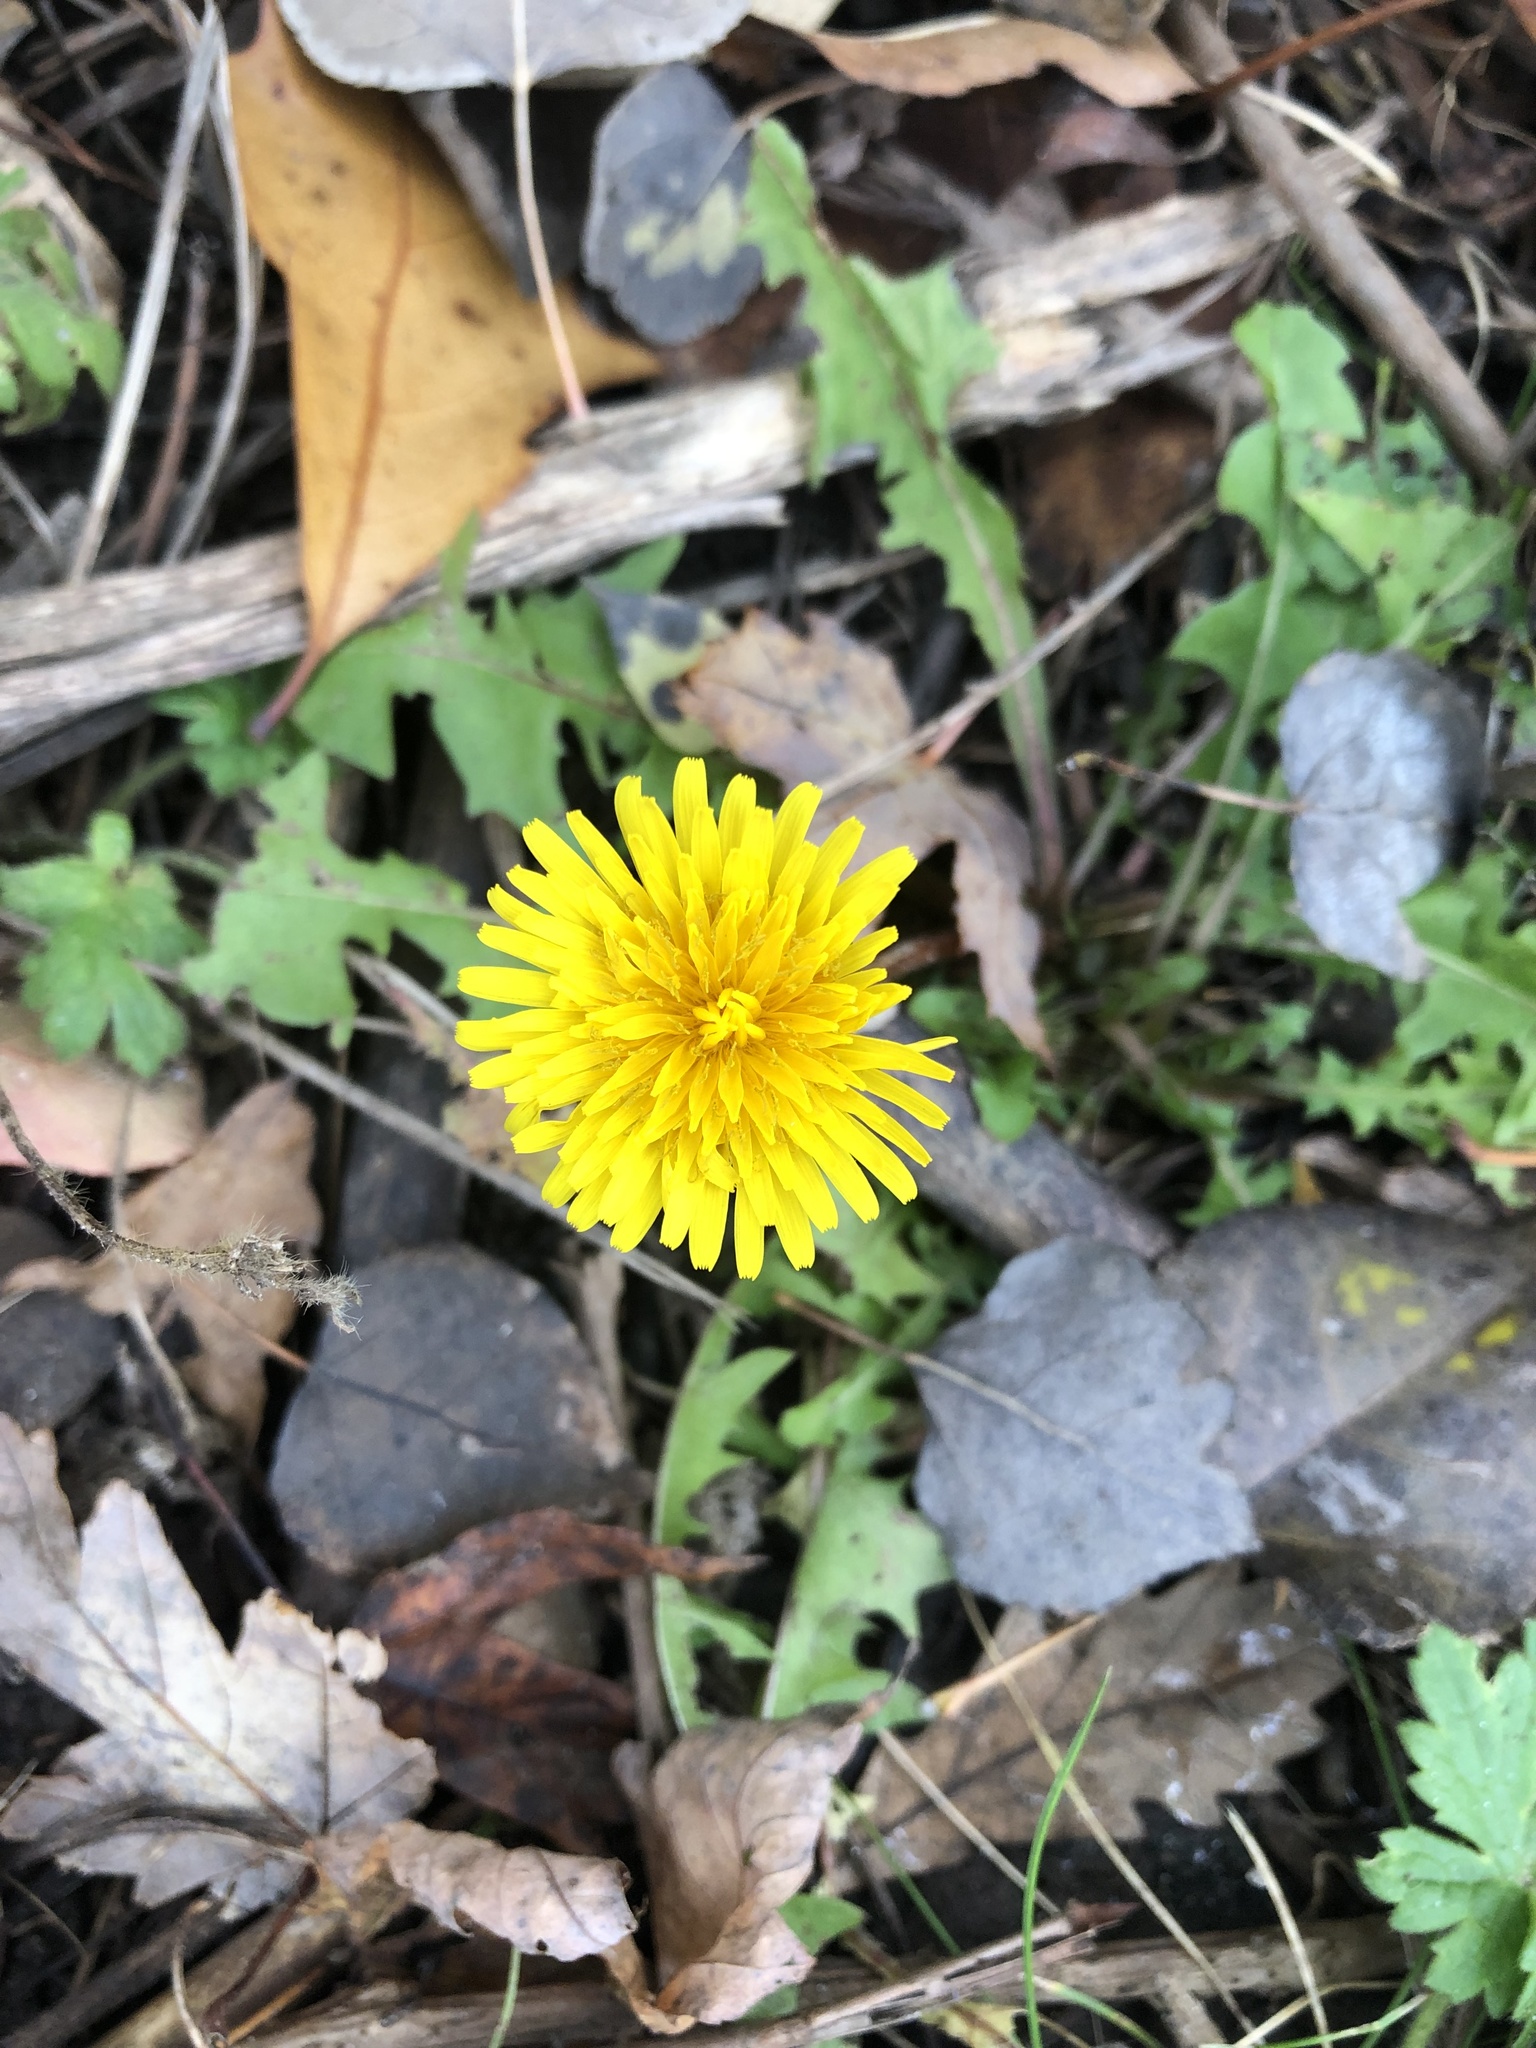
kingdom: Plantae
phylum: Tracheophyta
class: Magnoliopsida
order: Asterales
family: Asteraceae
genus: Taraxacum
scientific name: Taraxacum officinale
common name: Common dandelion
